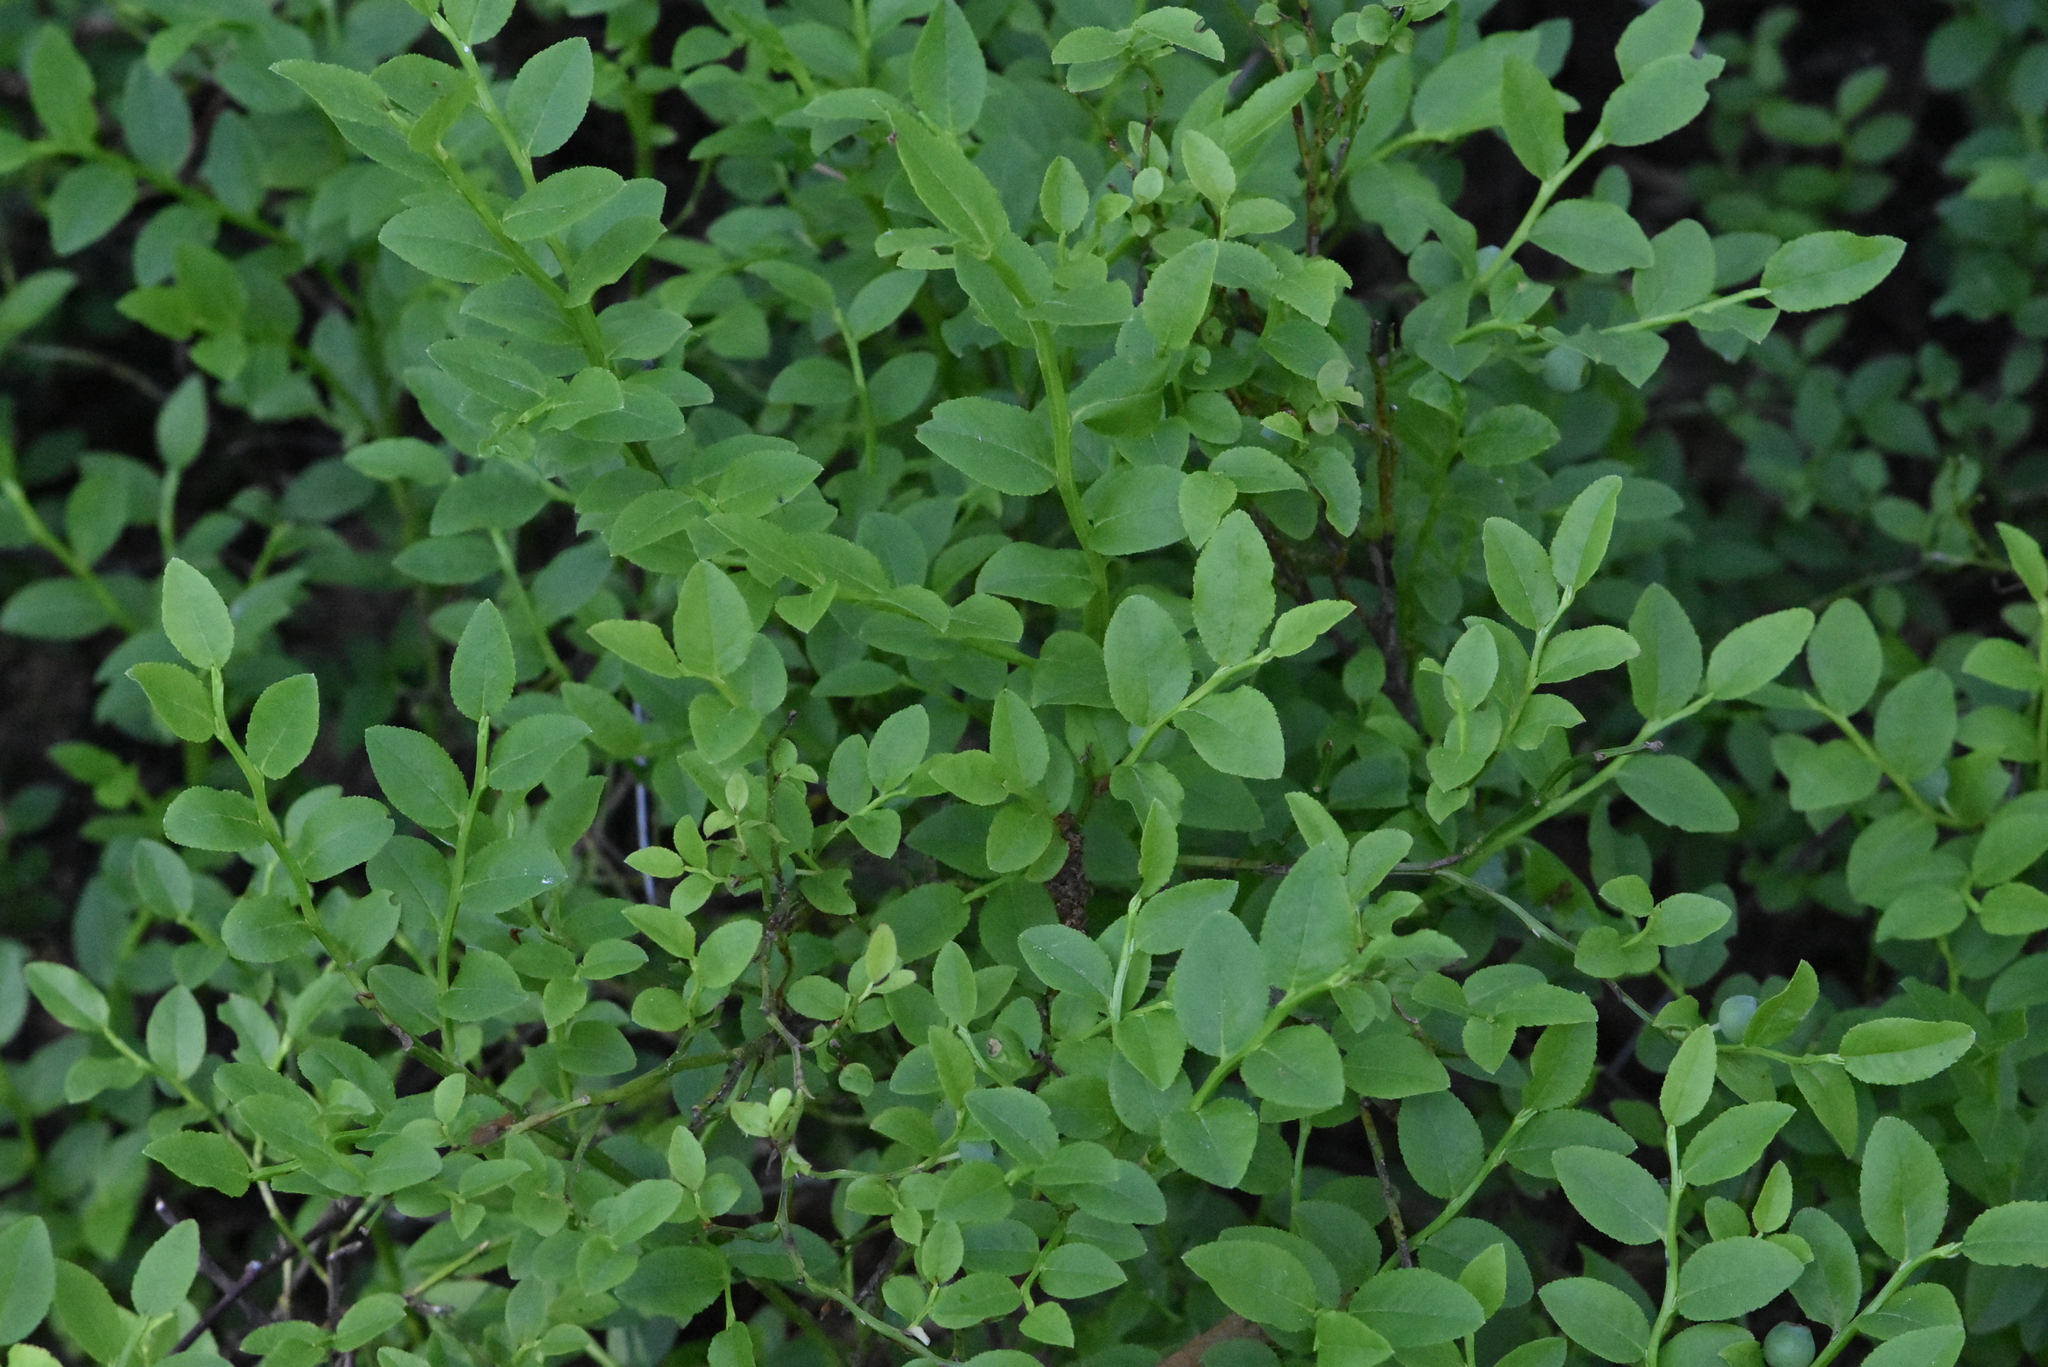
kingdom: Plantae
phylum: Tracheophyta
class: Magnoliopsida
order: Ericales
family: Ericaceae
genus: Vaccinium
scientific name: Vaccinium myrtillus
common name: Bilberry
